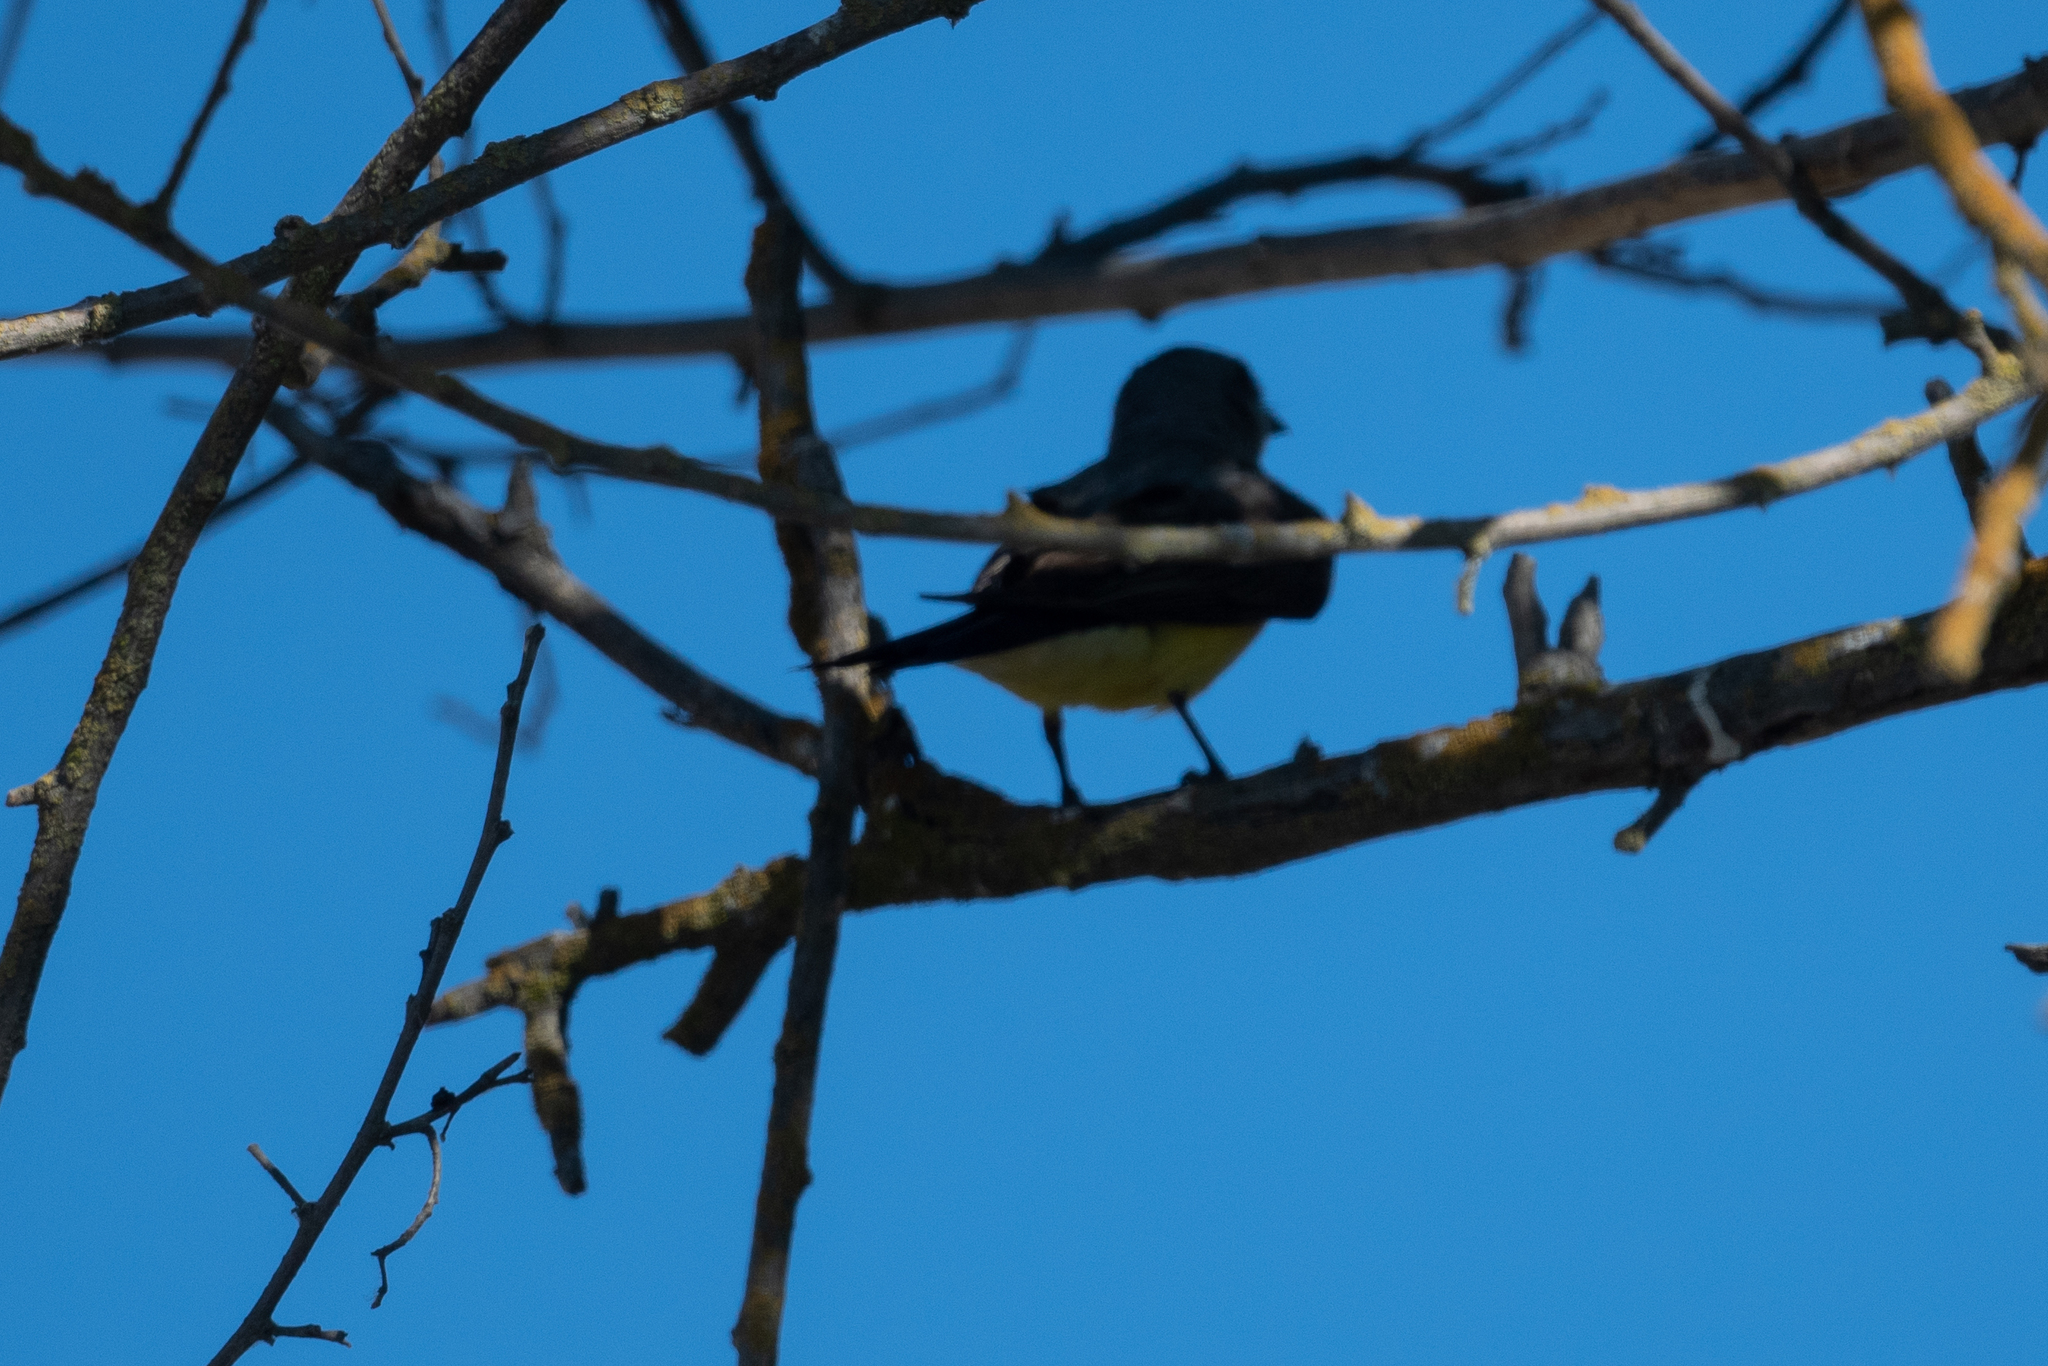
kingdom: Animalia
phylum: Chordata
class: Aves
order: Passeriformes
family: Tyrannidae
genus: Tyrannus
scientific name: Tyrannus verticalis
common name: Western kingbird
